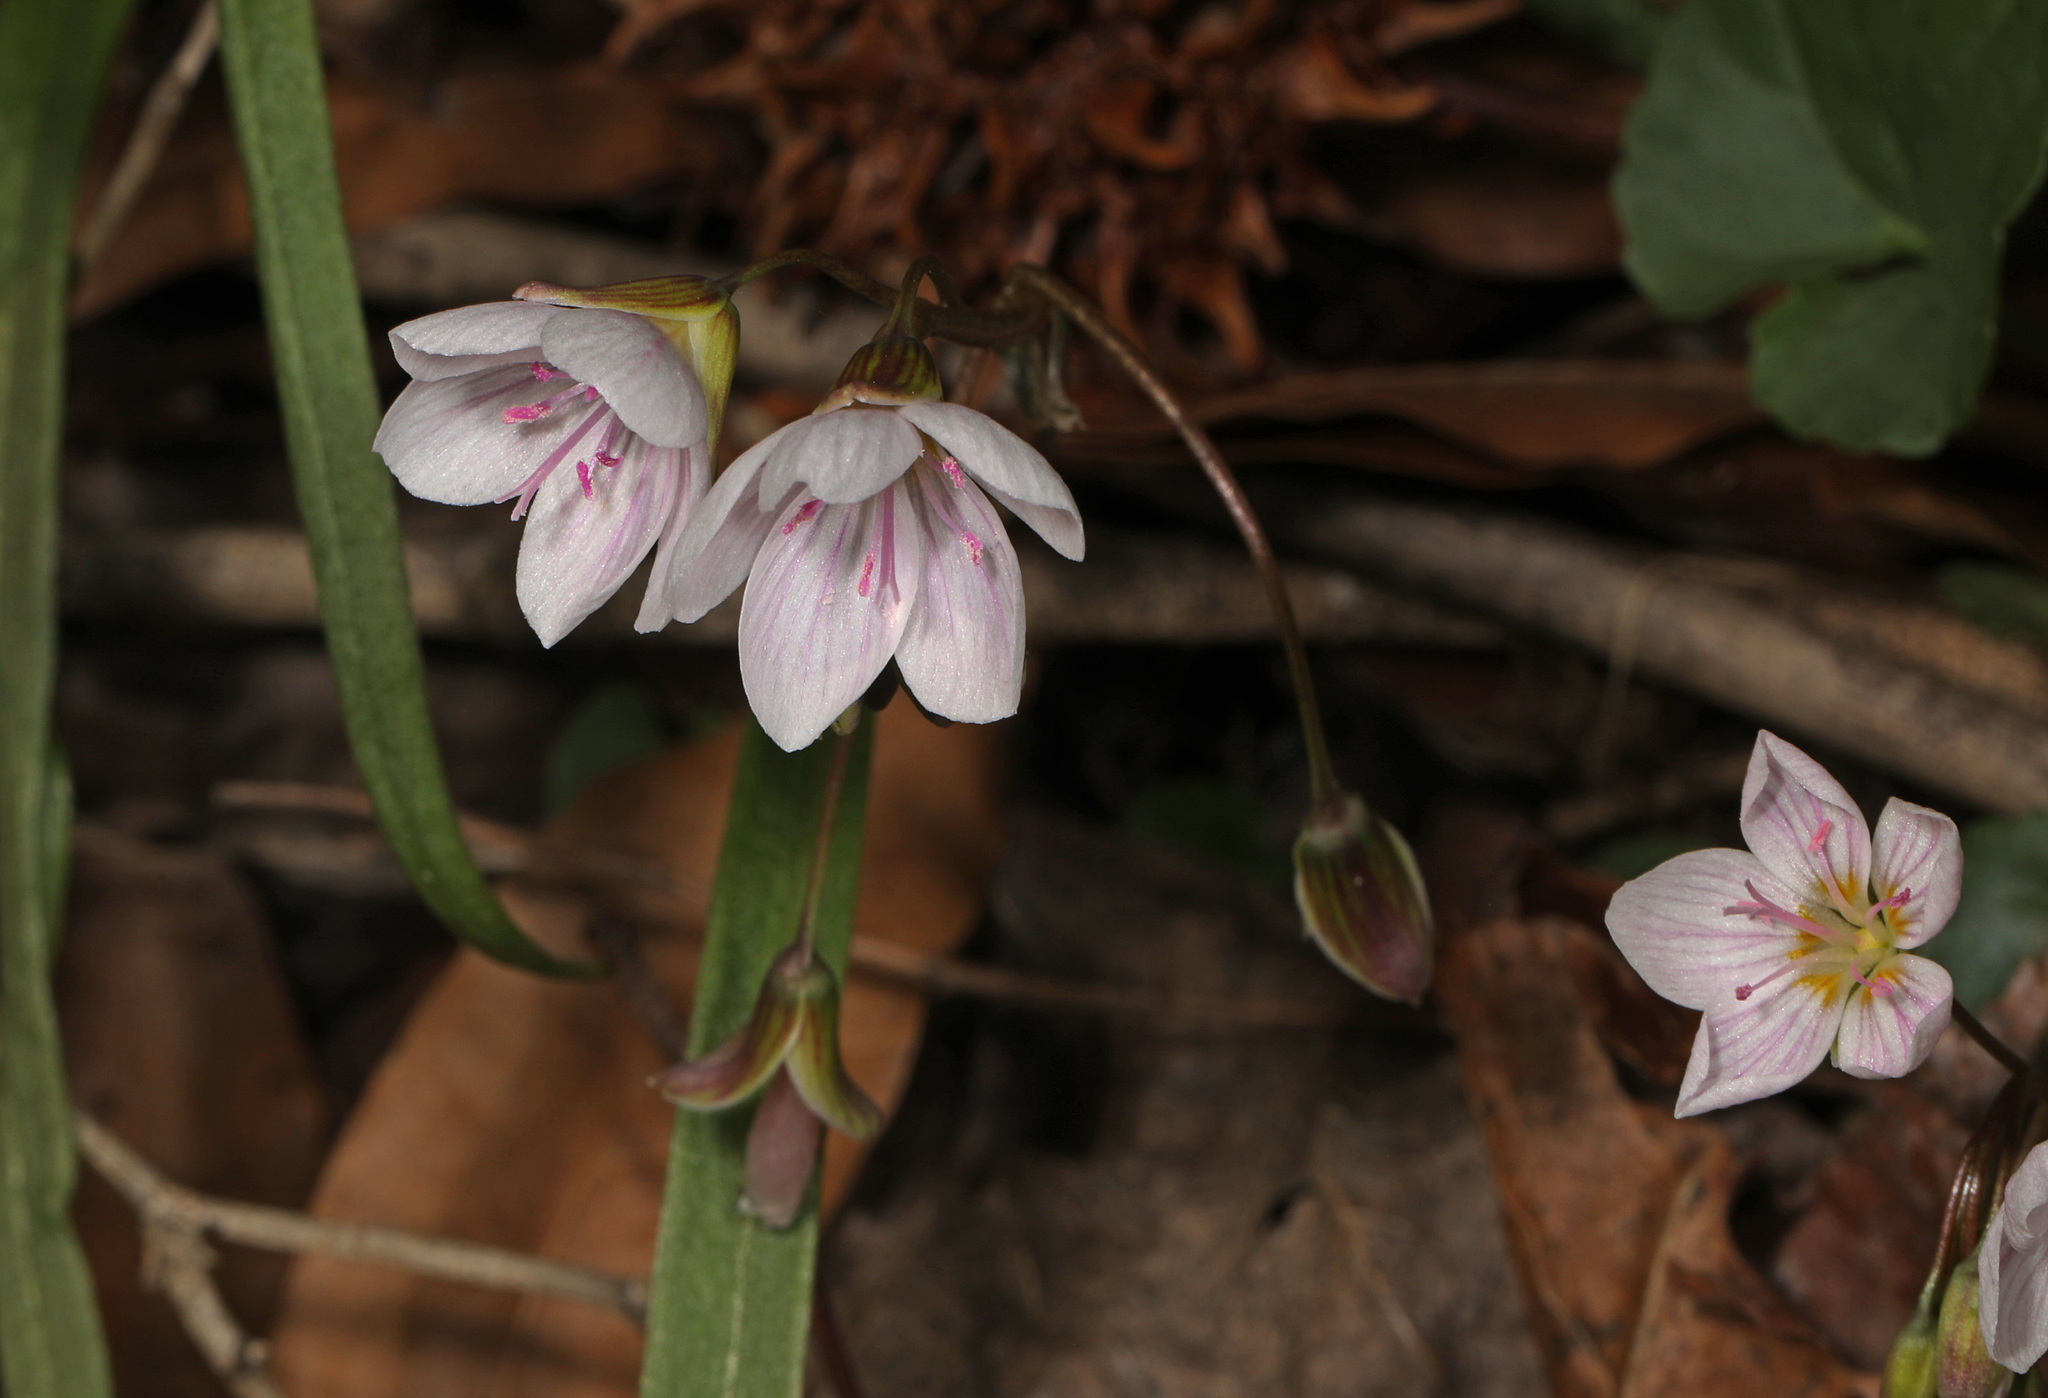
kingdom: Plantae
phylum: Tracheophyta
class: Magnoliopsida
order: Caryophyllales
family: Montiaceae
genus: Claytonia
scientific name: Claytonia virginica
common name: Virginia springbeauty
